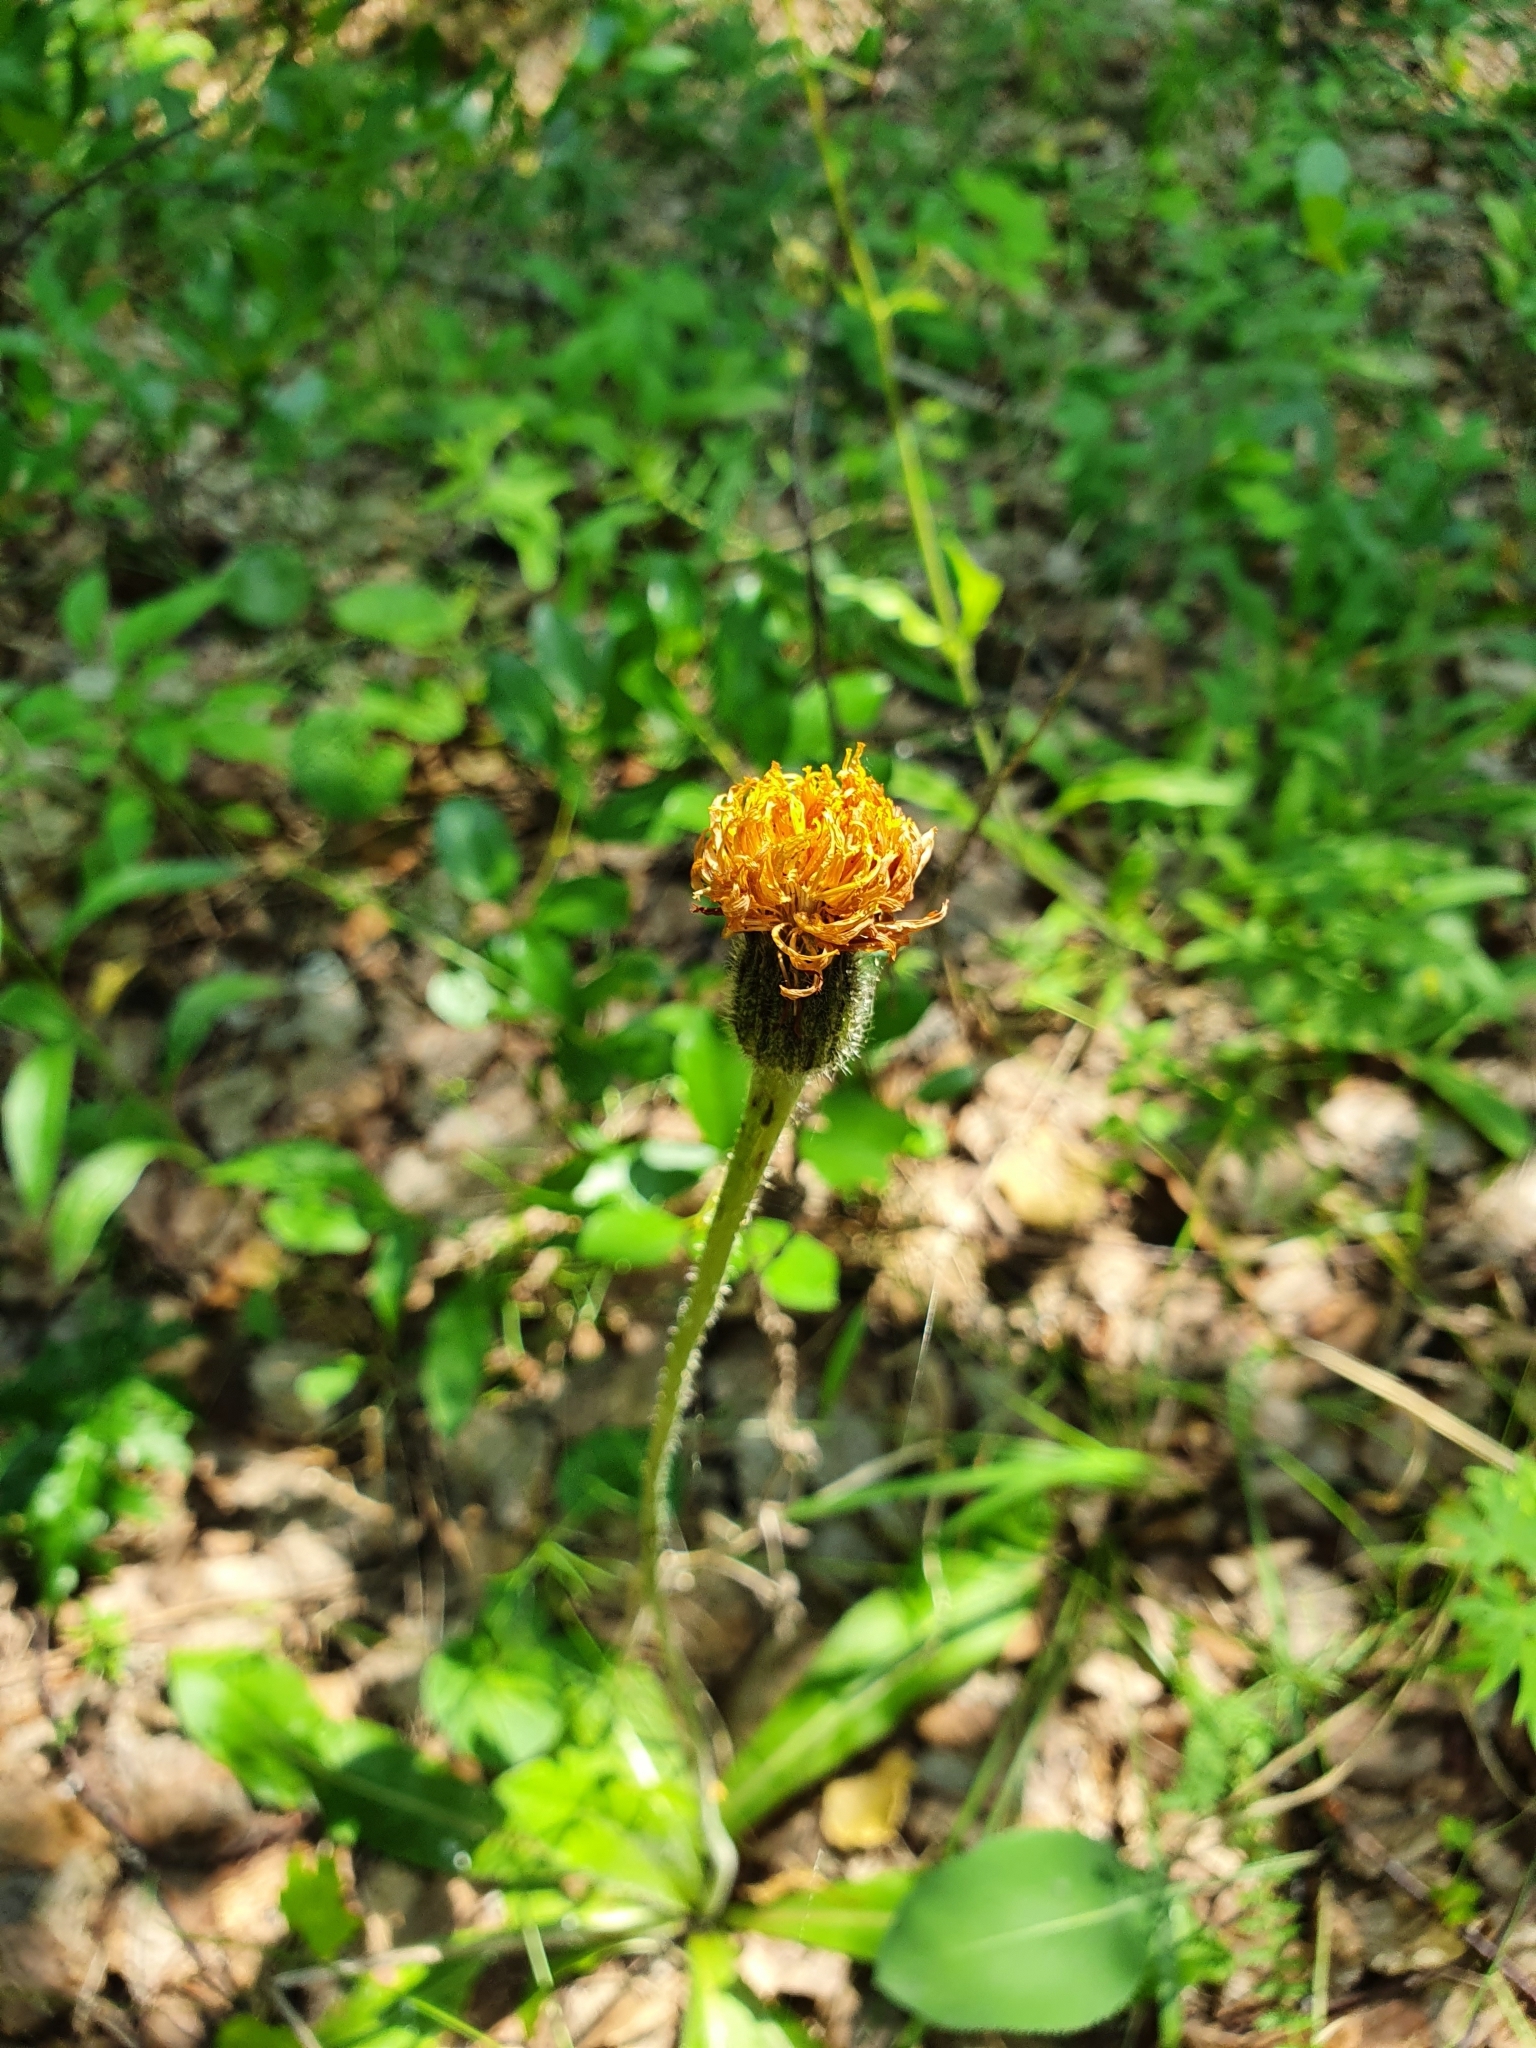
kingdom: Plantae
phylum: Tracheophyta
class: Magnoliopsida
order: Asterales
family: Asteraceae
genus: Trommsdorffia
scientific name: Trommsdorffia maculata
